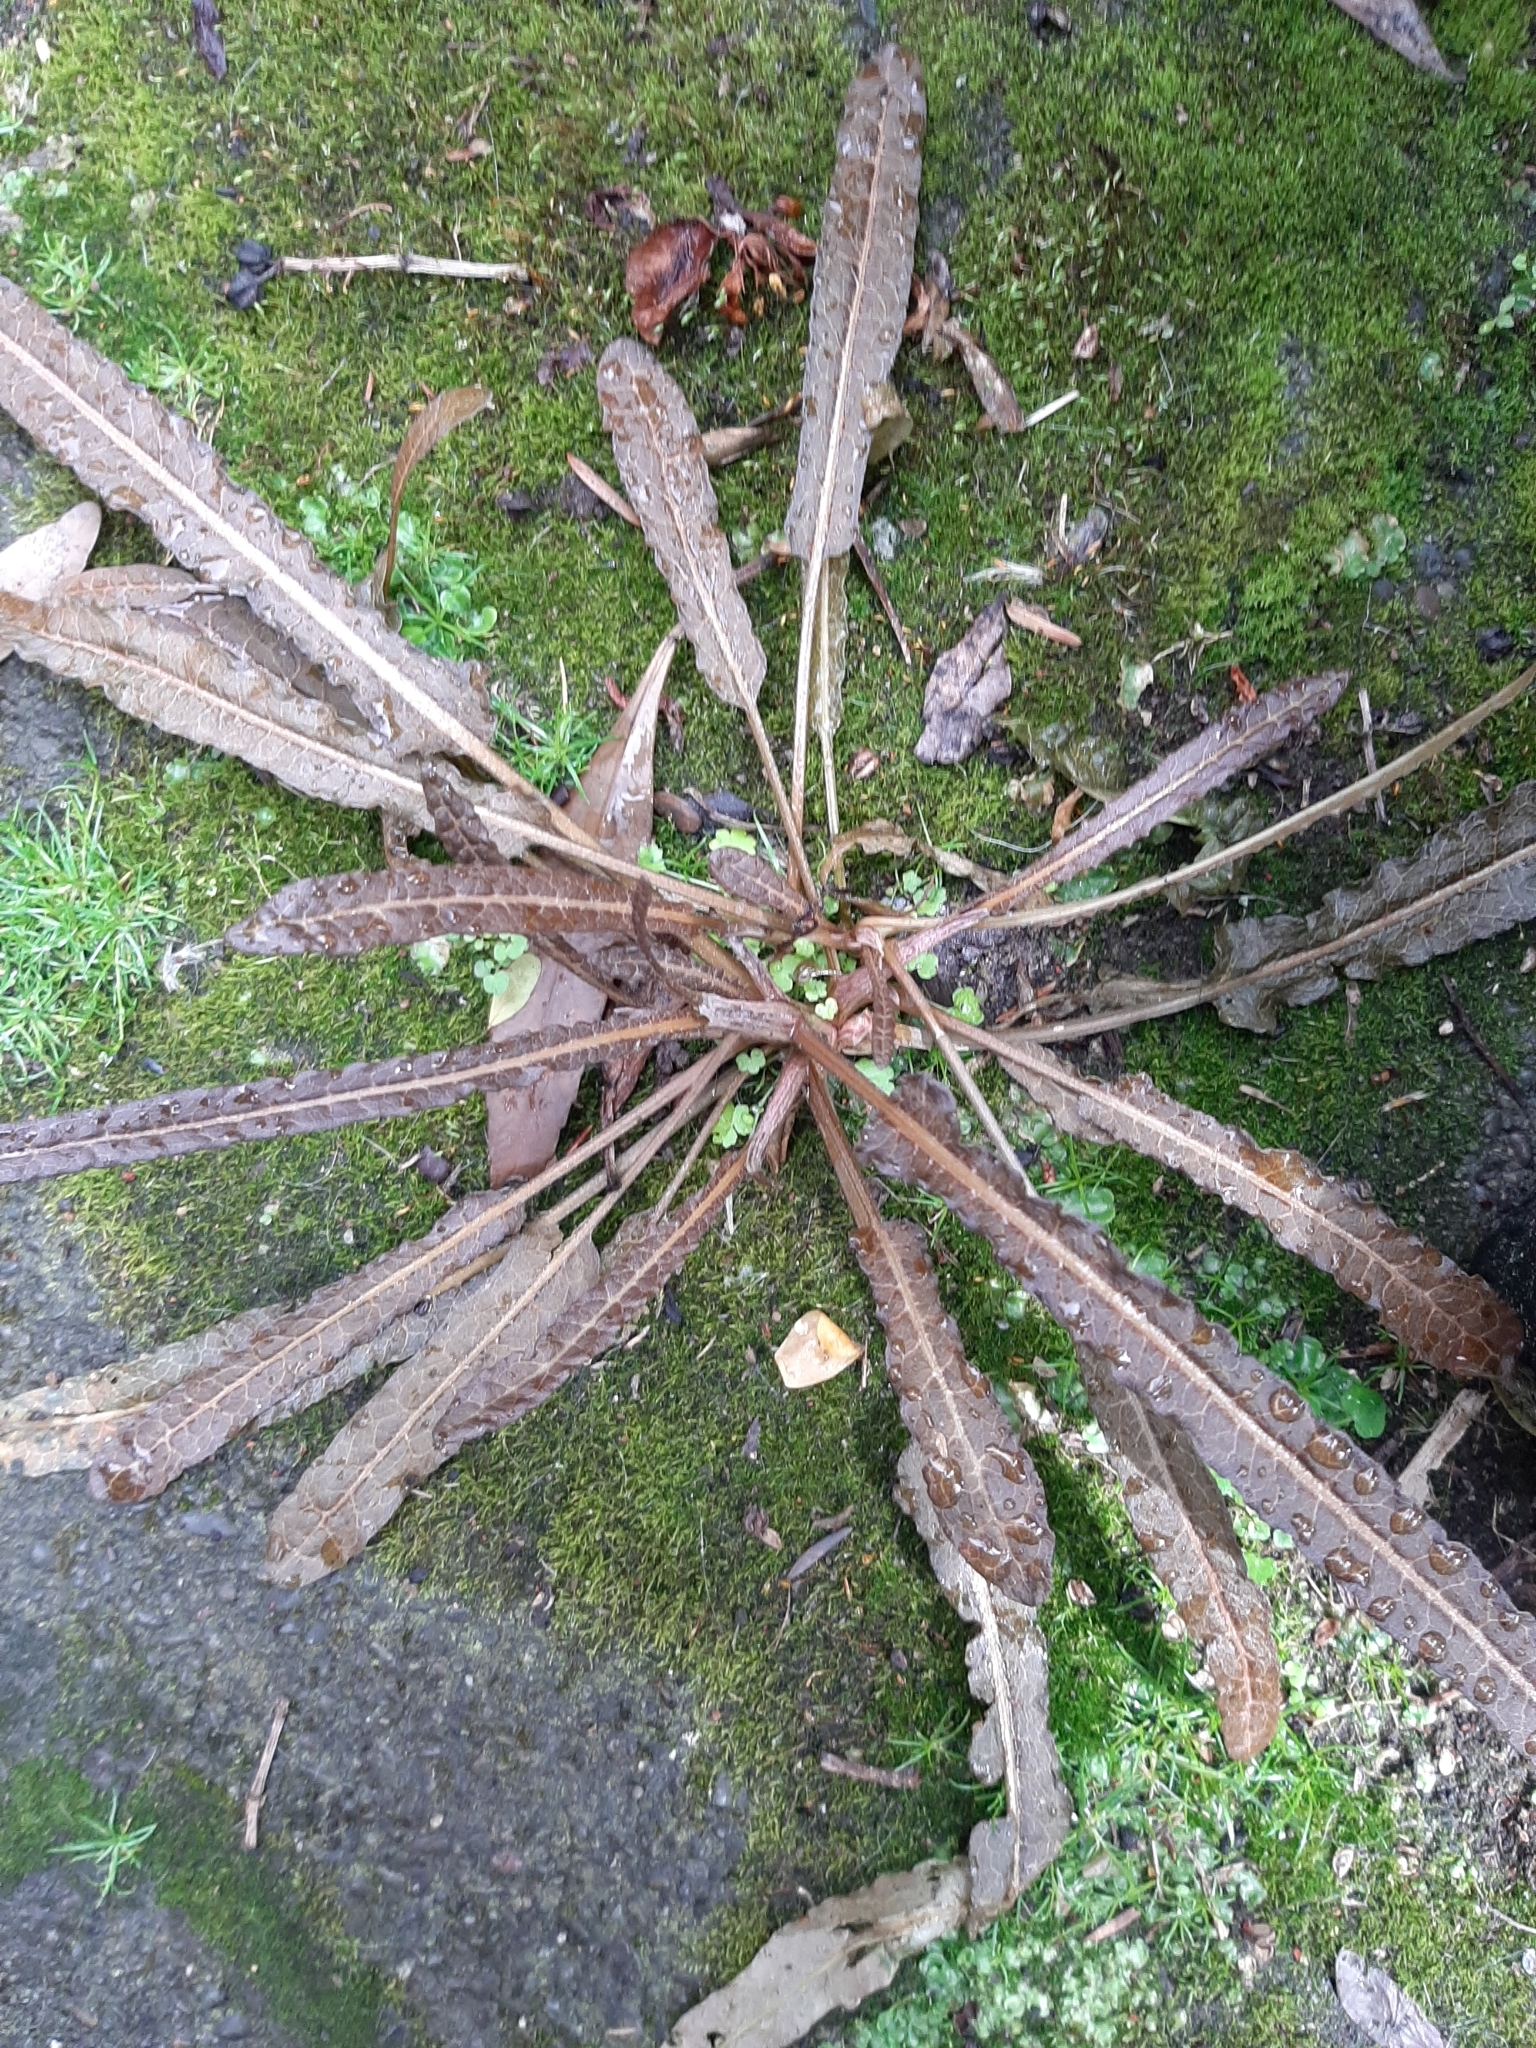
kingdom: Plantae
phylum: Tracheophyta
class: Magnoliopsida
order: Caryophyllales
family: Polygonaceae
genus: Rumex
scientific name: Rumex flexuosus
